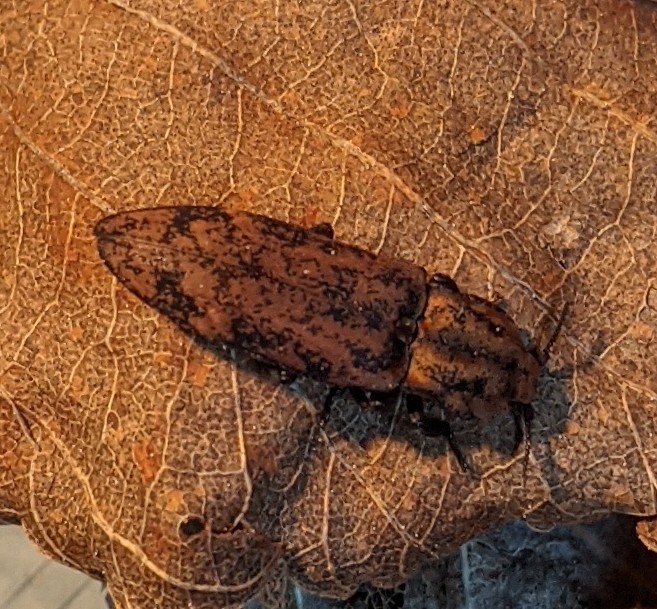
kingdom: Animalia
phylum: Arthropoda
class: Insecta
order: Coleoptera
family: Elateridae
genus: Danosoma
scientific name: Danosoma brevicorne
